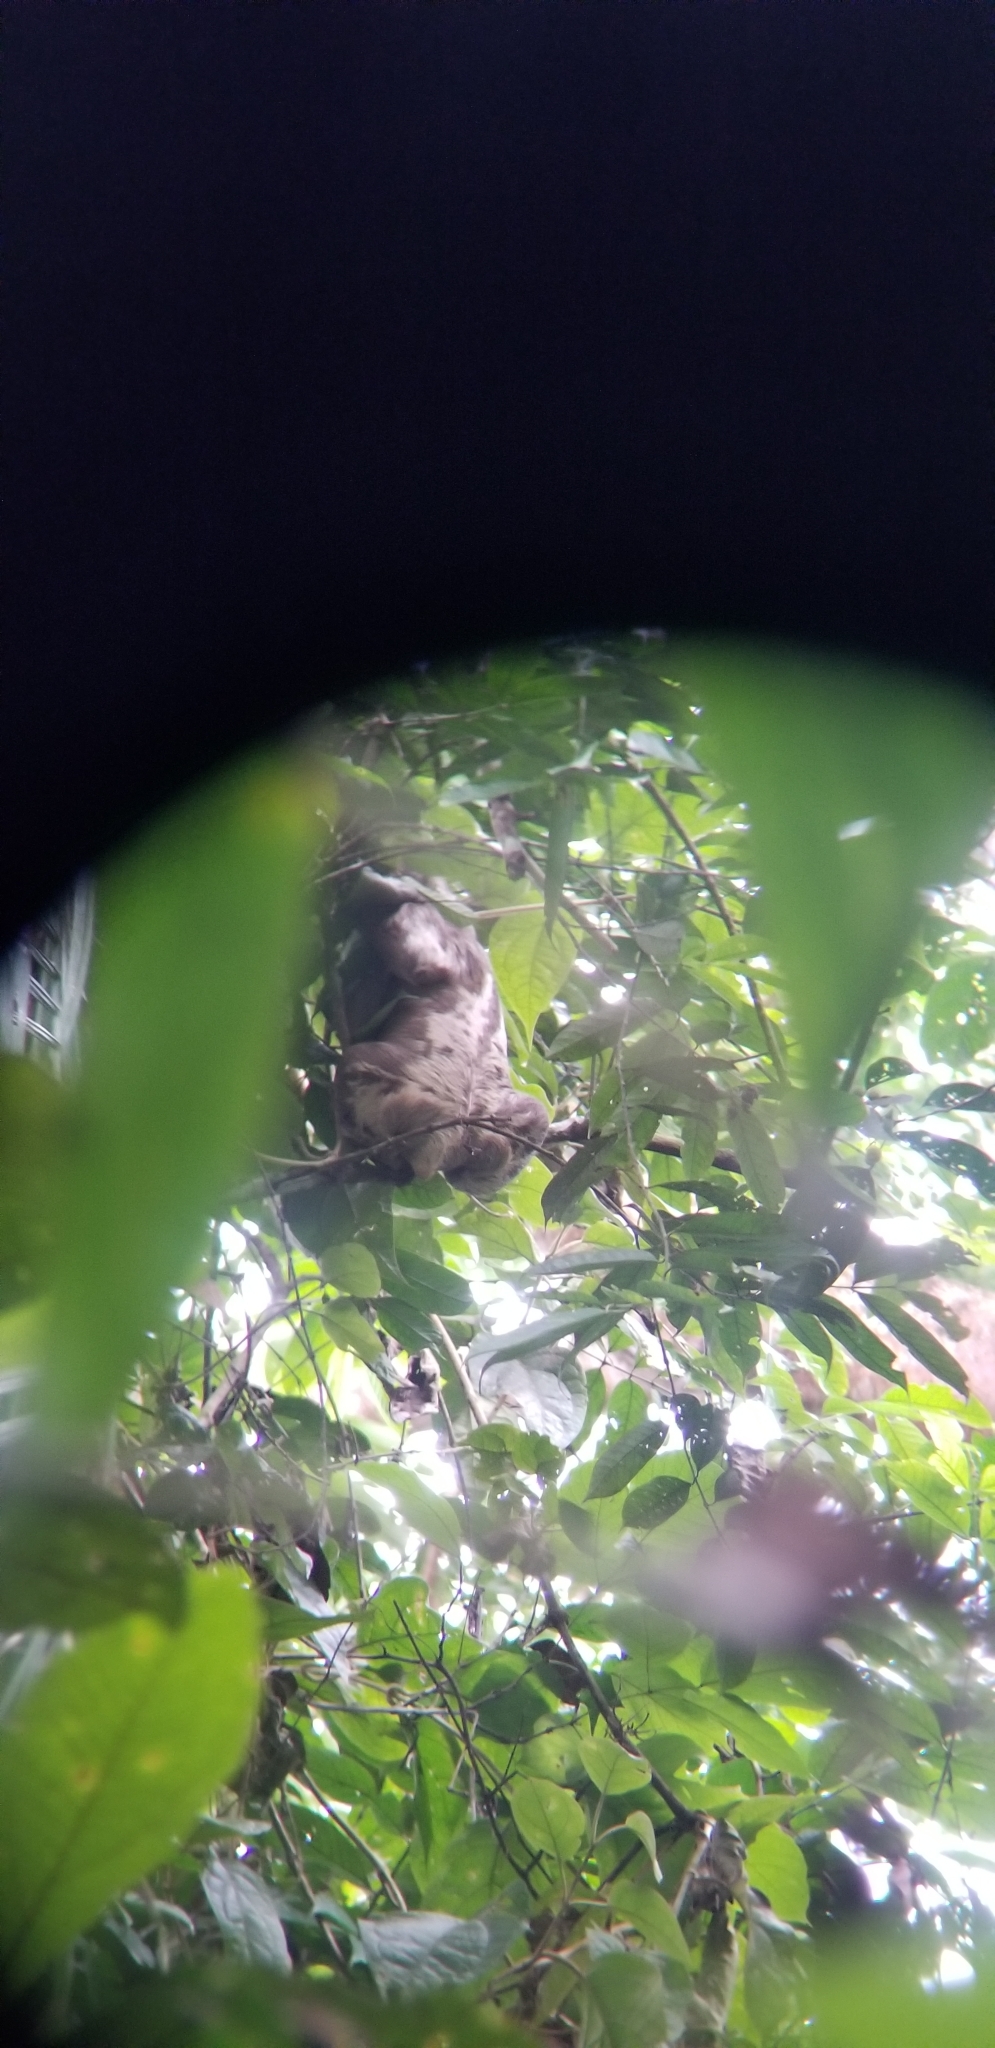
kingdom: Animalia
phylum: Chordata
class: Mammalia
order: Pilosa
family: Bradypodidae
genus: Bradypus
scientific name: Bradypus variegatus
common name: Brown-throated three-toed sloth
